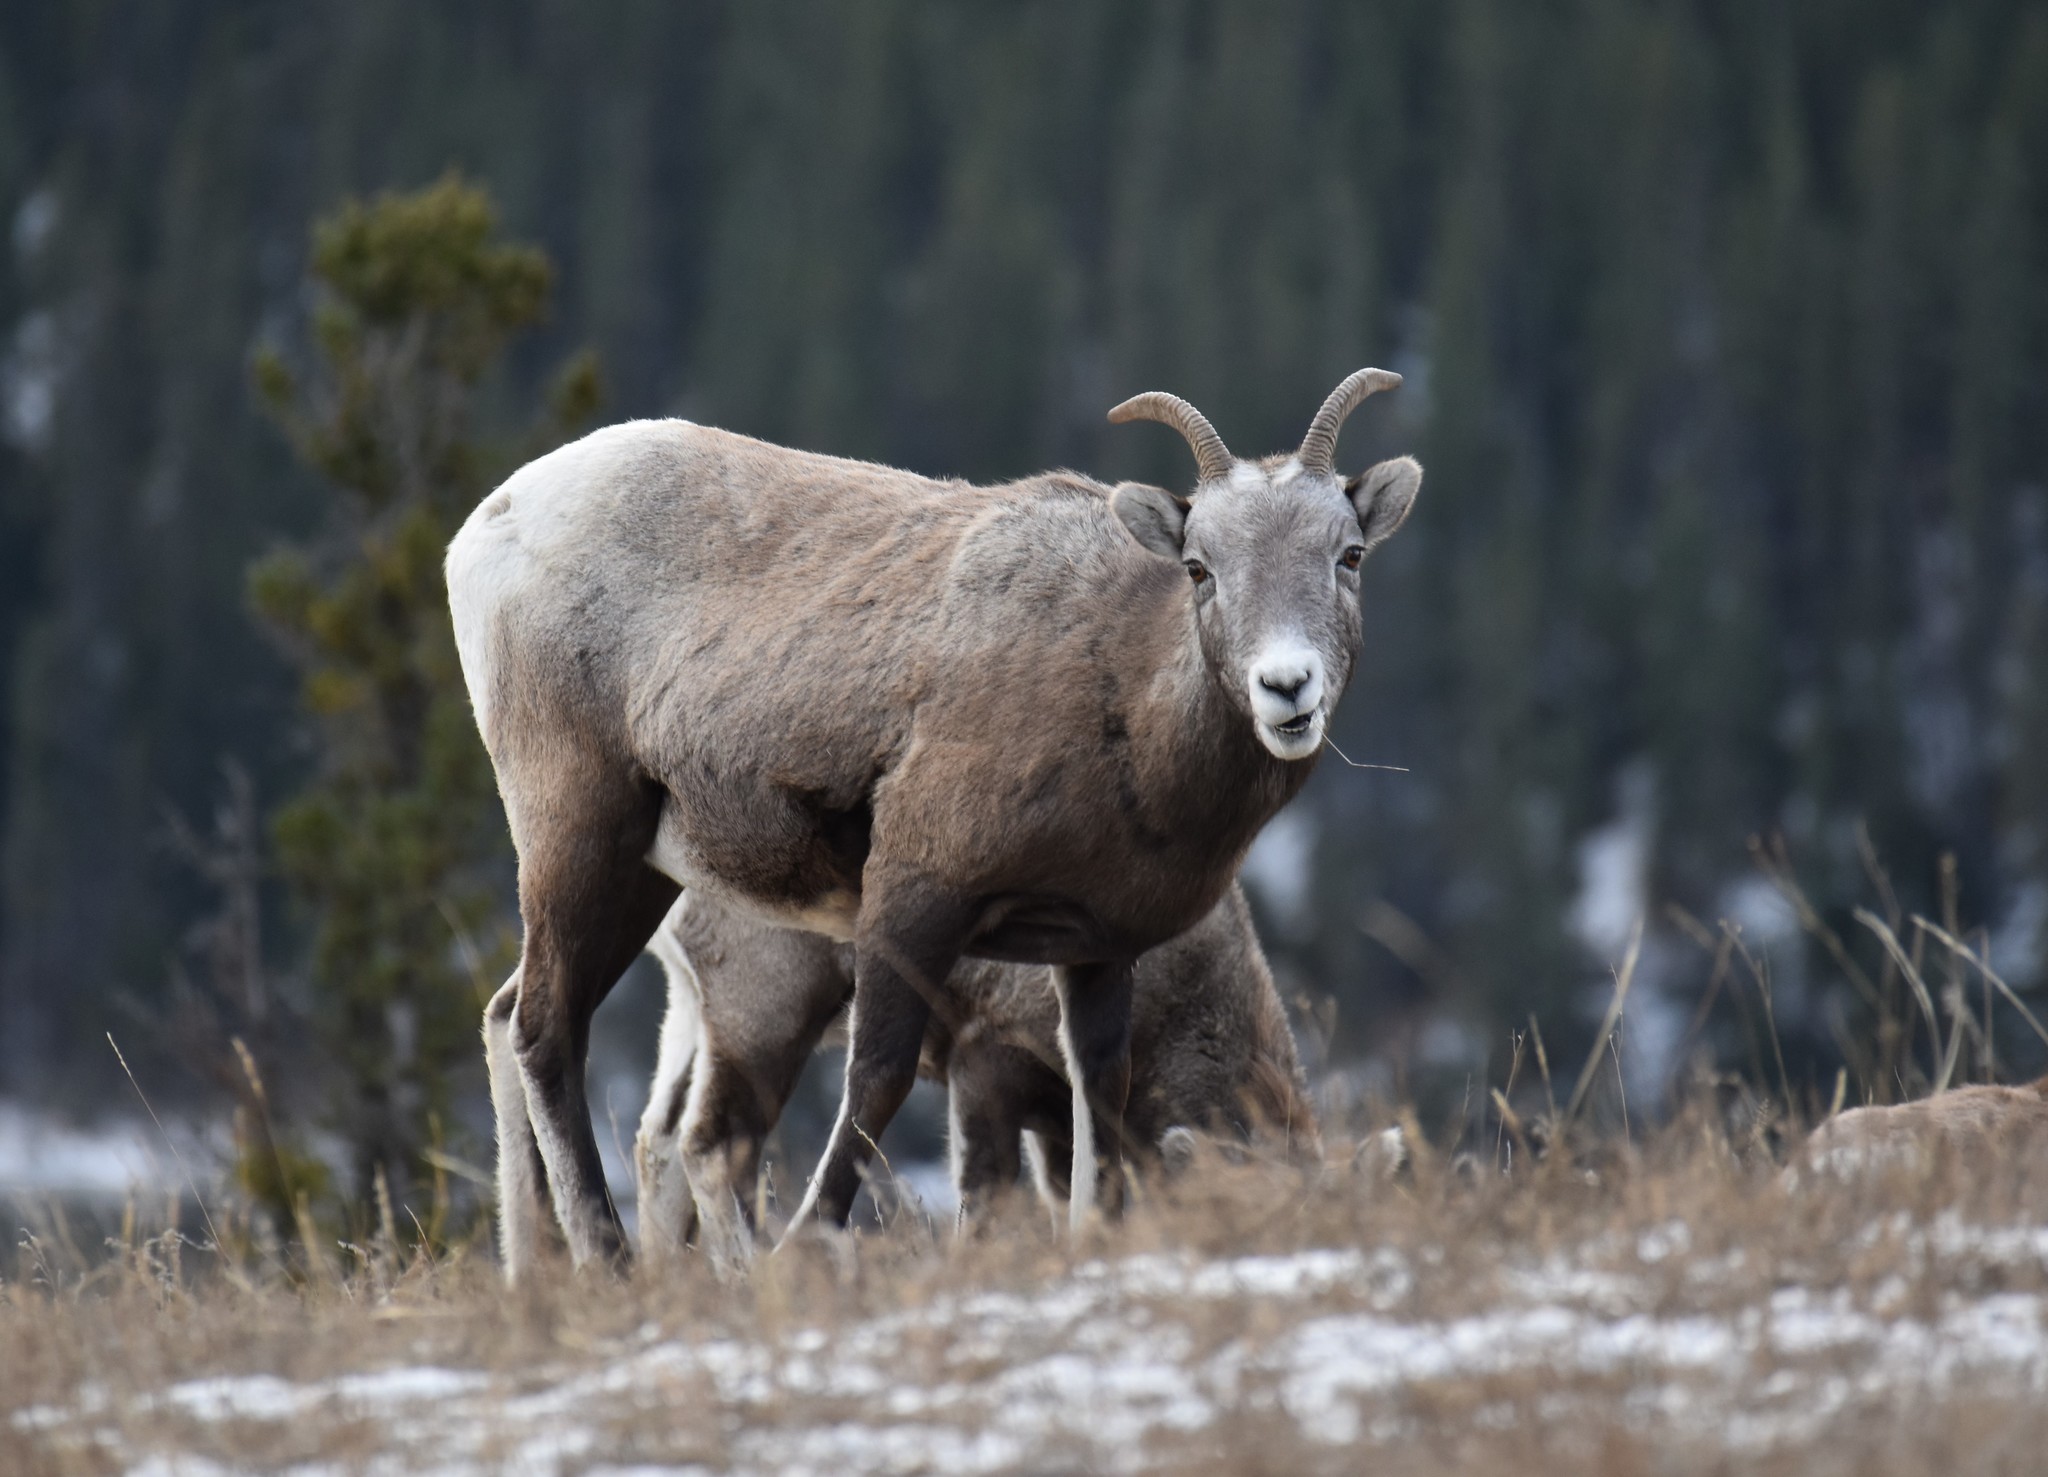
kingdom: Animalia
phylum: Chordata
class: Mammalia
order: Artiodactyla
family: Bovidae
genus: Ovis
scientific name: Ovis canadensis
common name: Bighorn sheep
